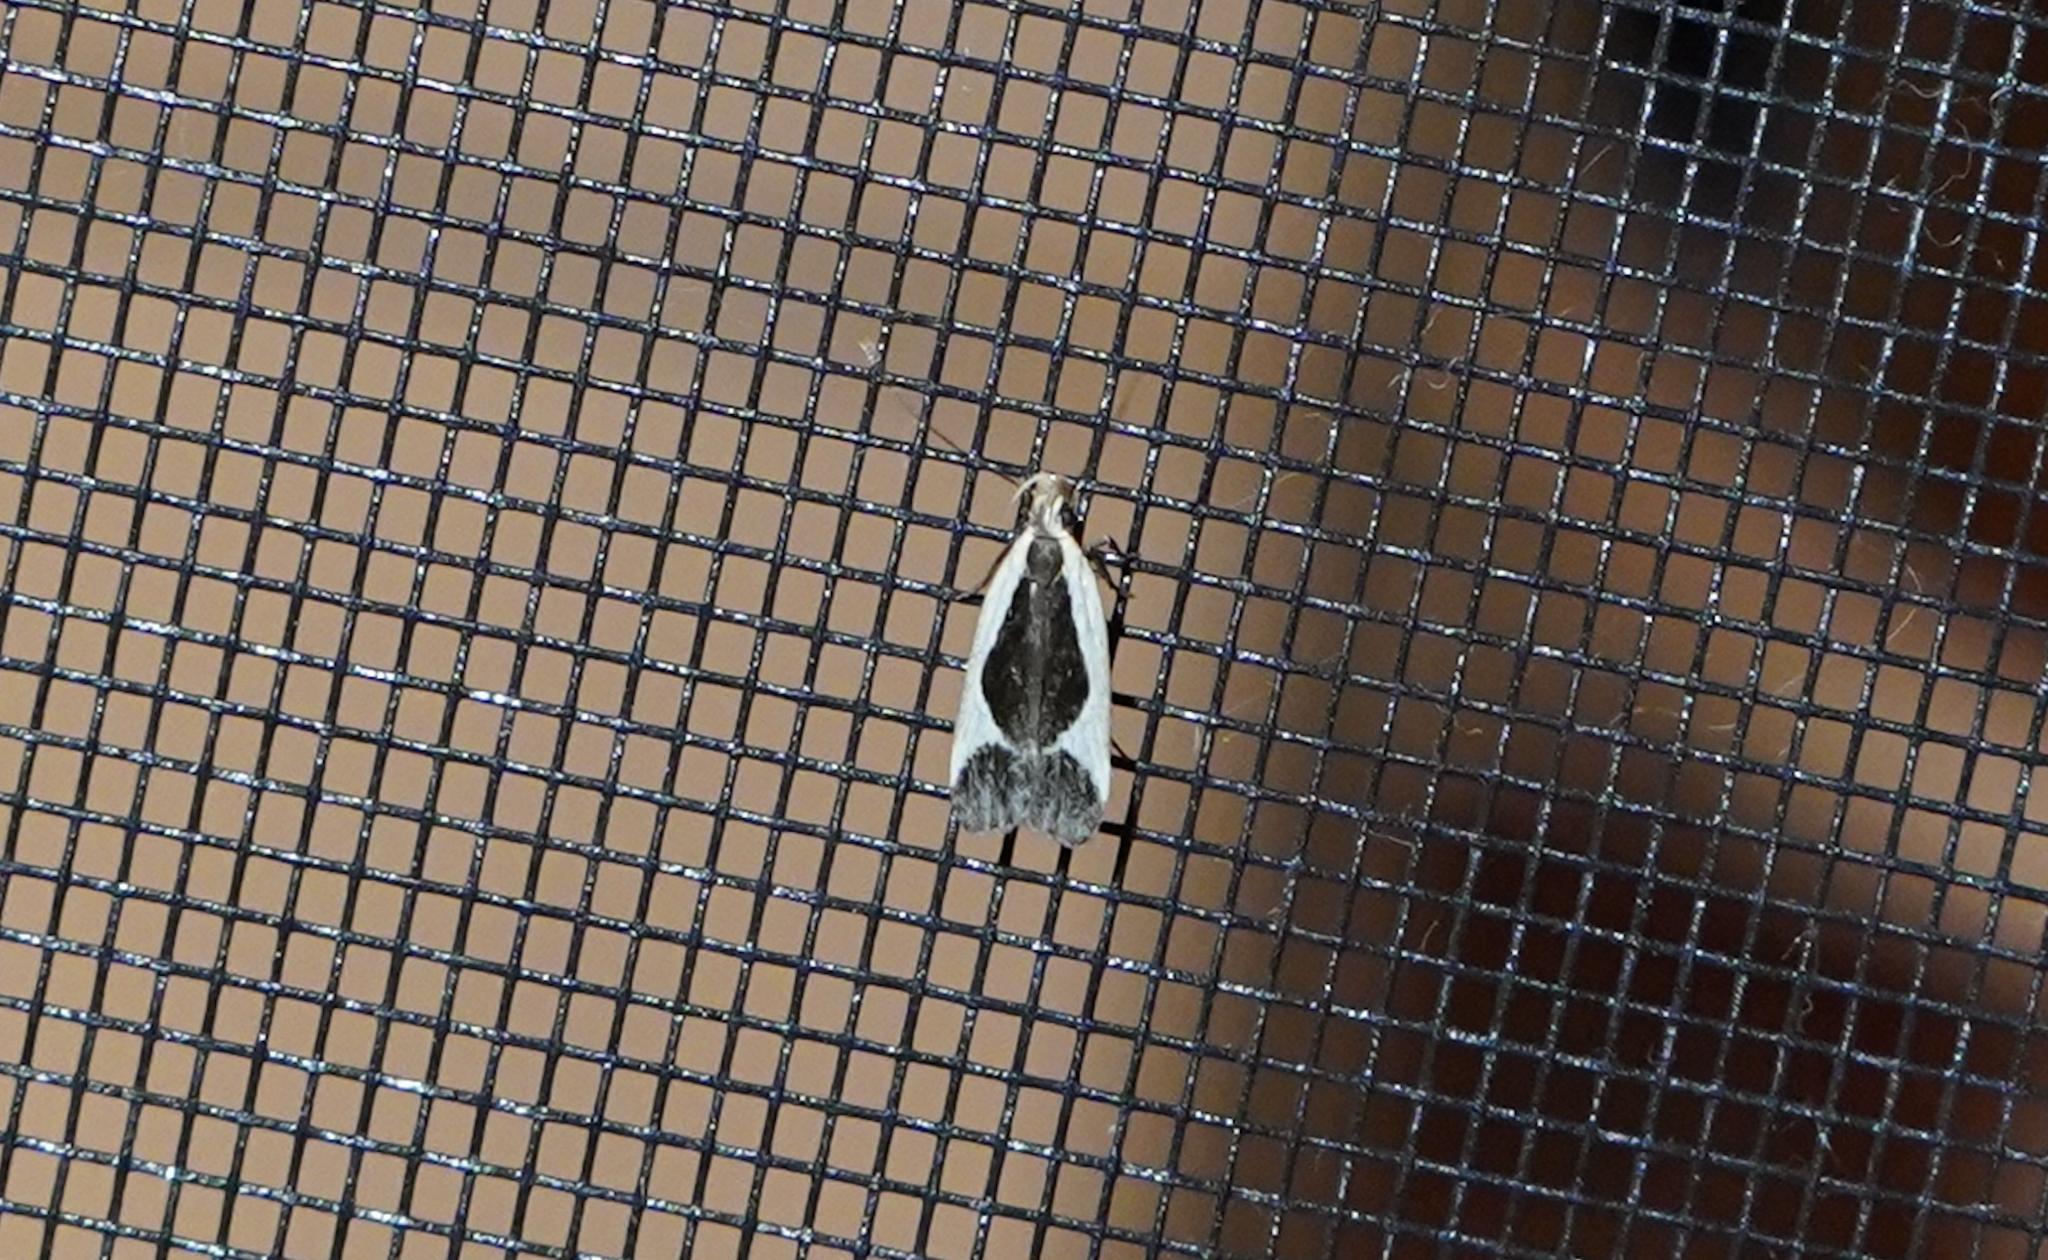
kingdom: Animalia
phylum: Arthropoda
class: Insecta
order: Lepidoptera
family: Gelechiidae
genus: Dichomeris
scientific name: Dichomeris flavocostella
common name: Cream-edged dichomeris moth
